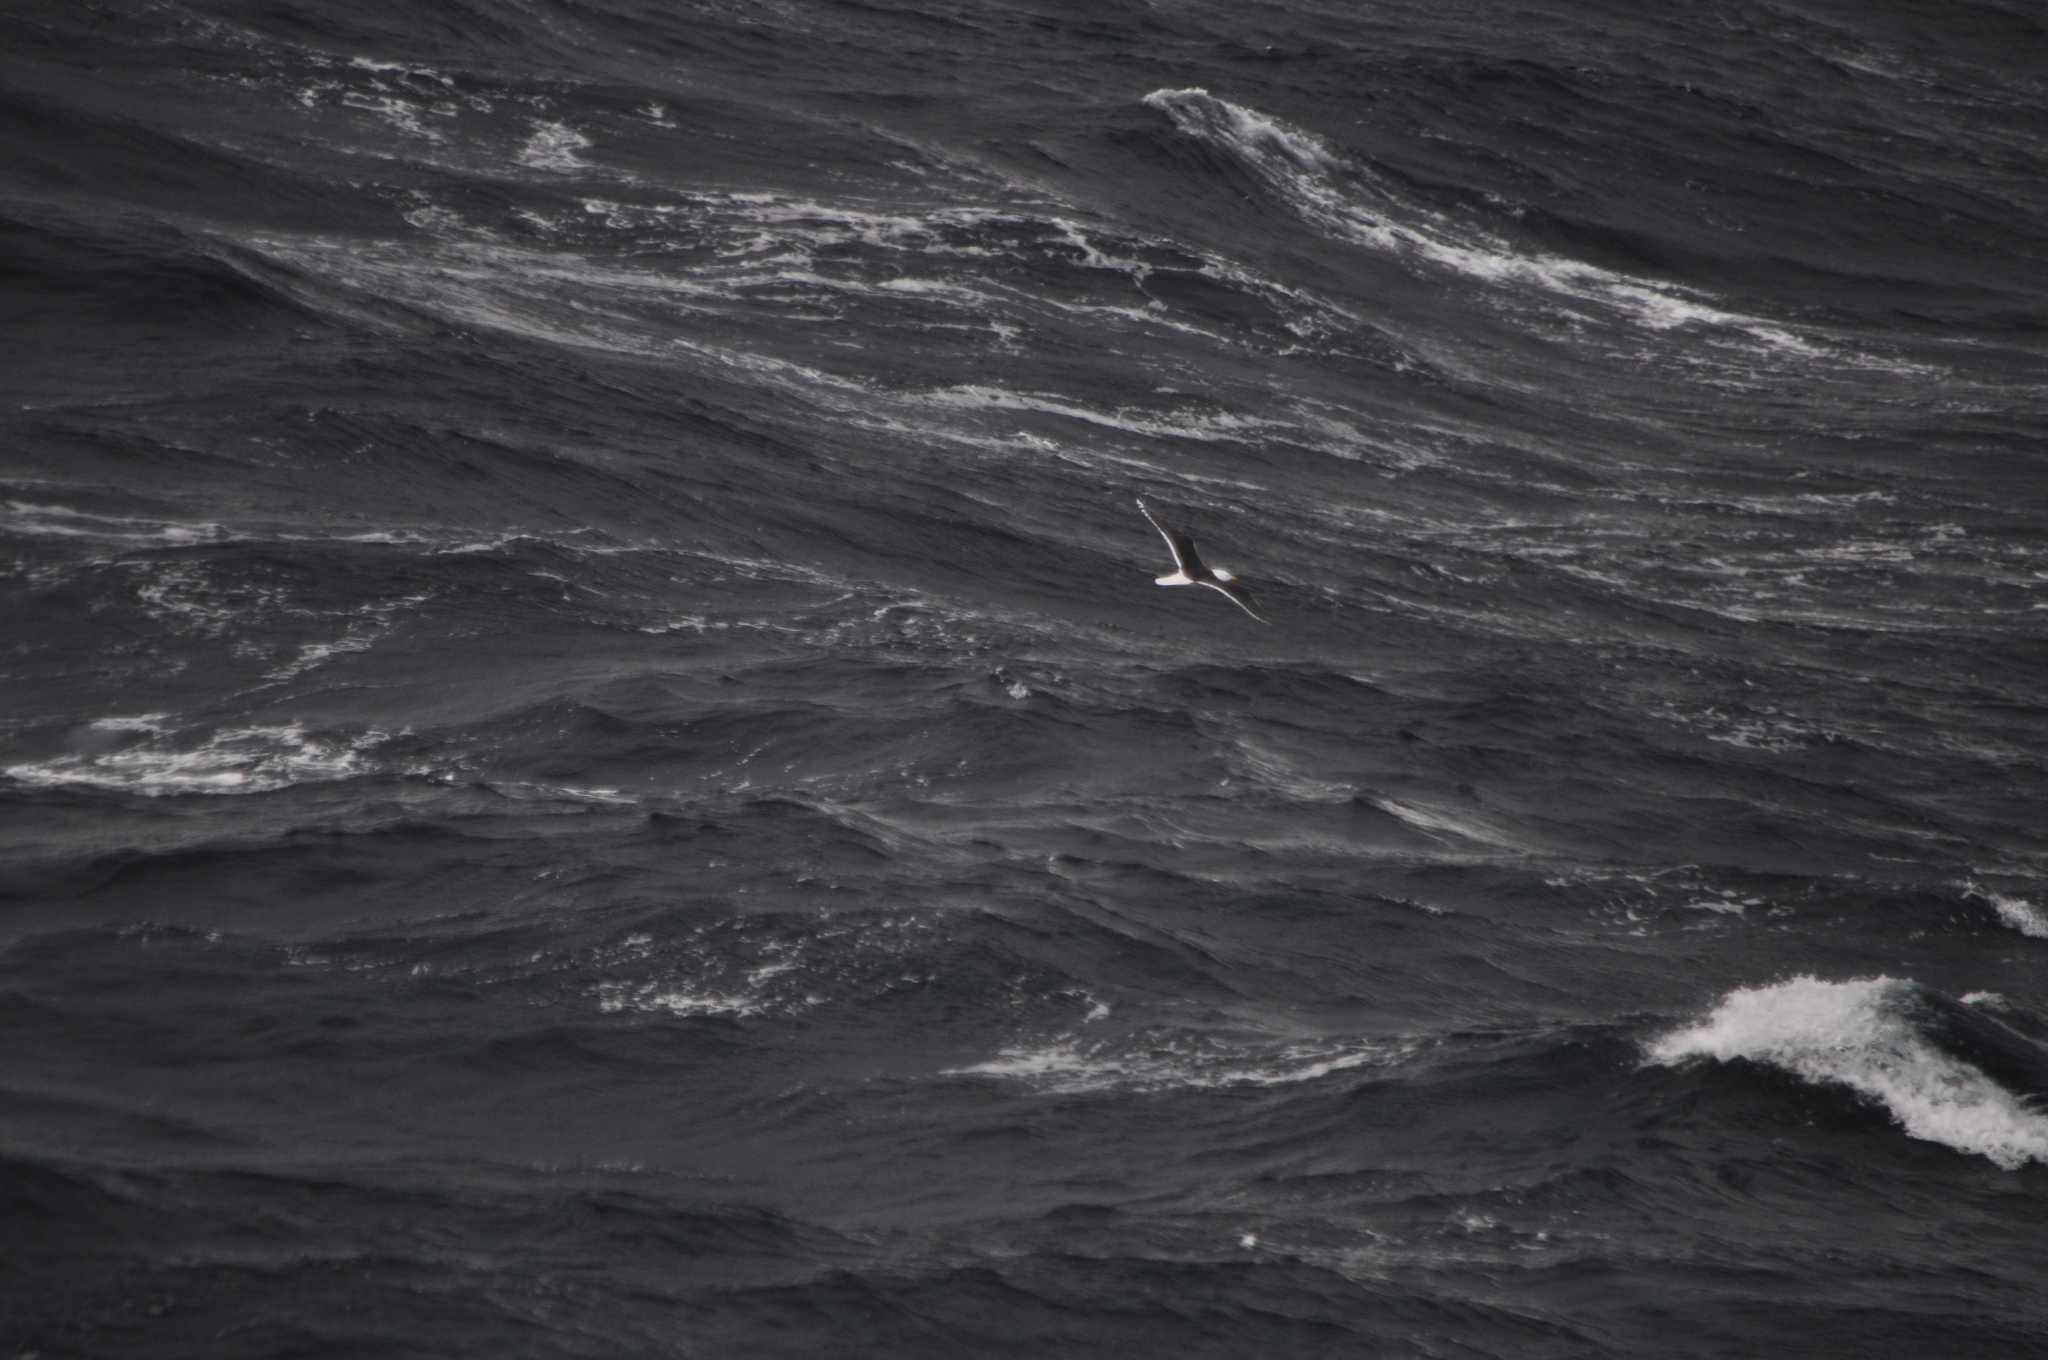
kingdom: Animalia
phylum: Chordata
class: Aves
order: Charadriiformes
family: Laridae
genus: Larus
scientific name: Larus marinus
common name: Great black-backed gull
